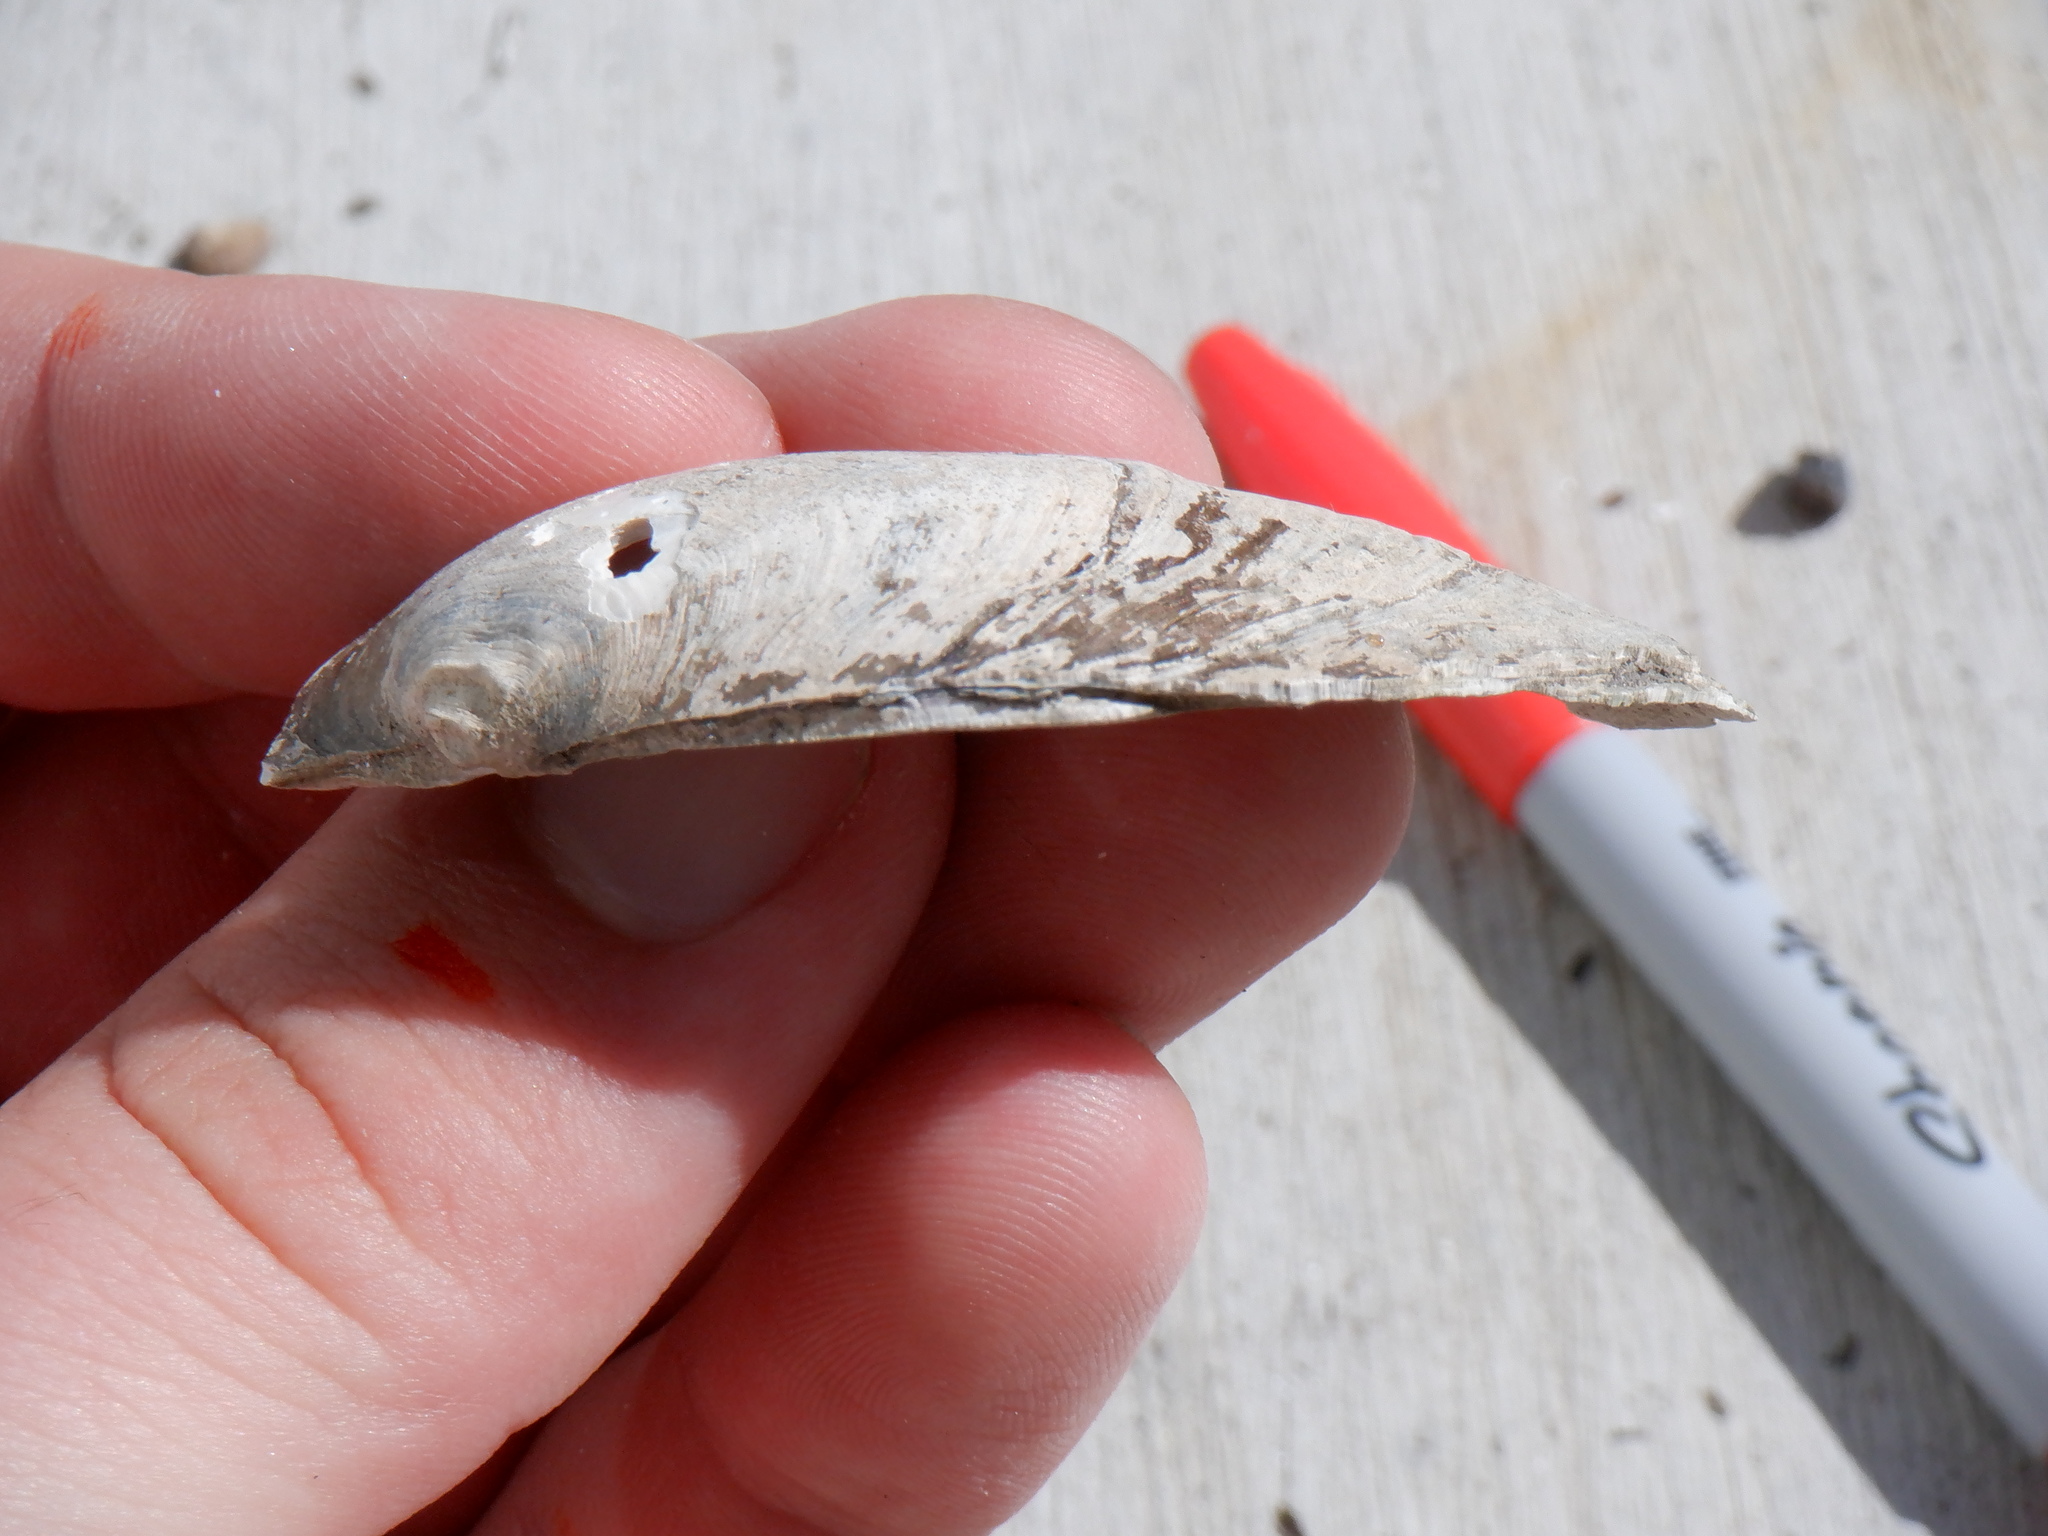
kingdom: Animalia
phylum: Mollusca
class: Bivalvia
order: Unionida
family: Unionidae
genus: Strophitus
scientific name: Strophitus undulatus
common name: Creeper
